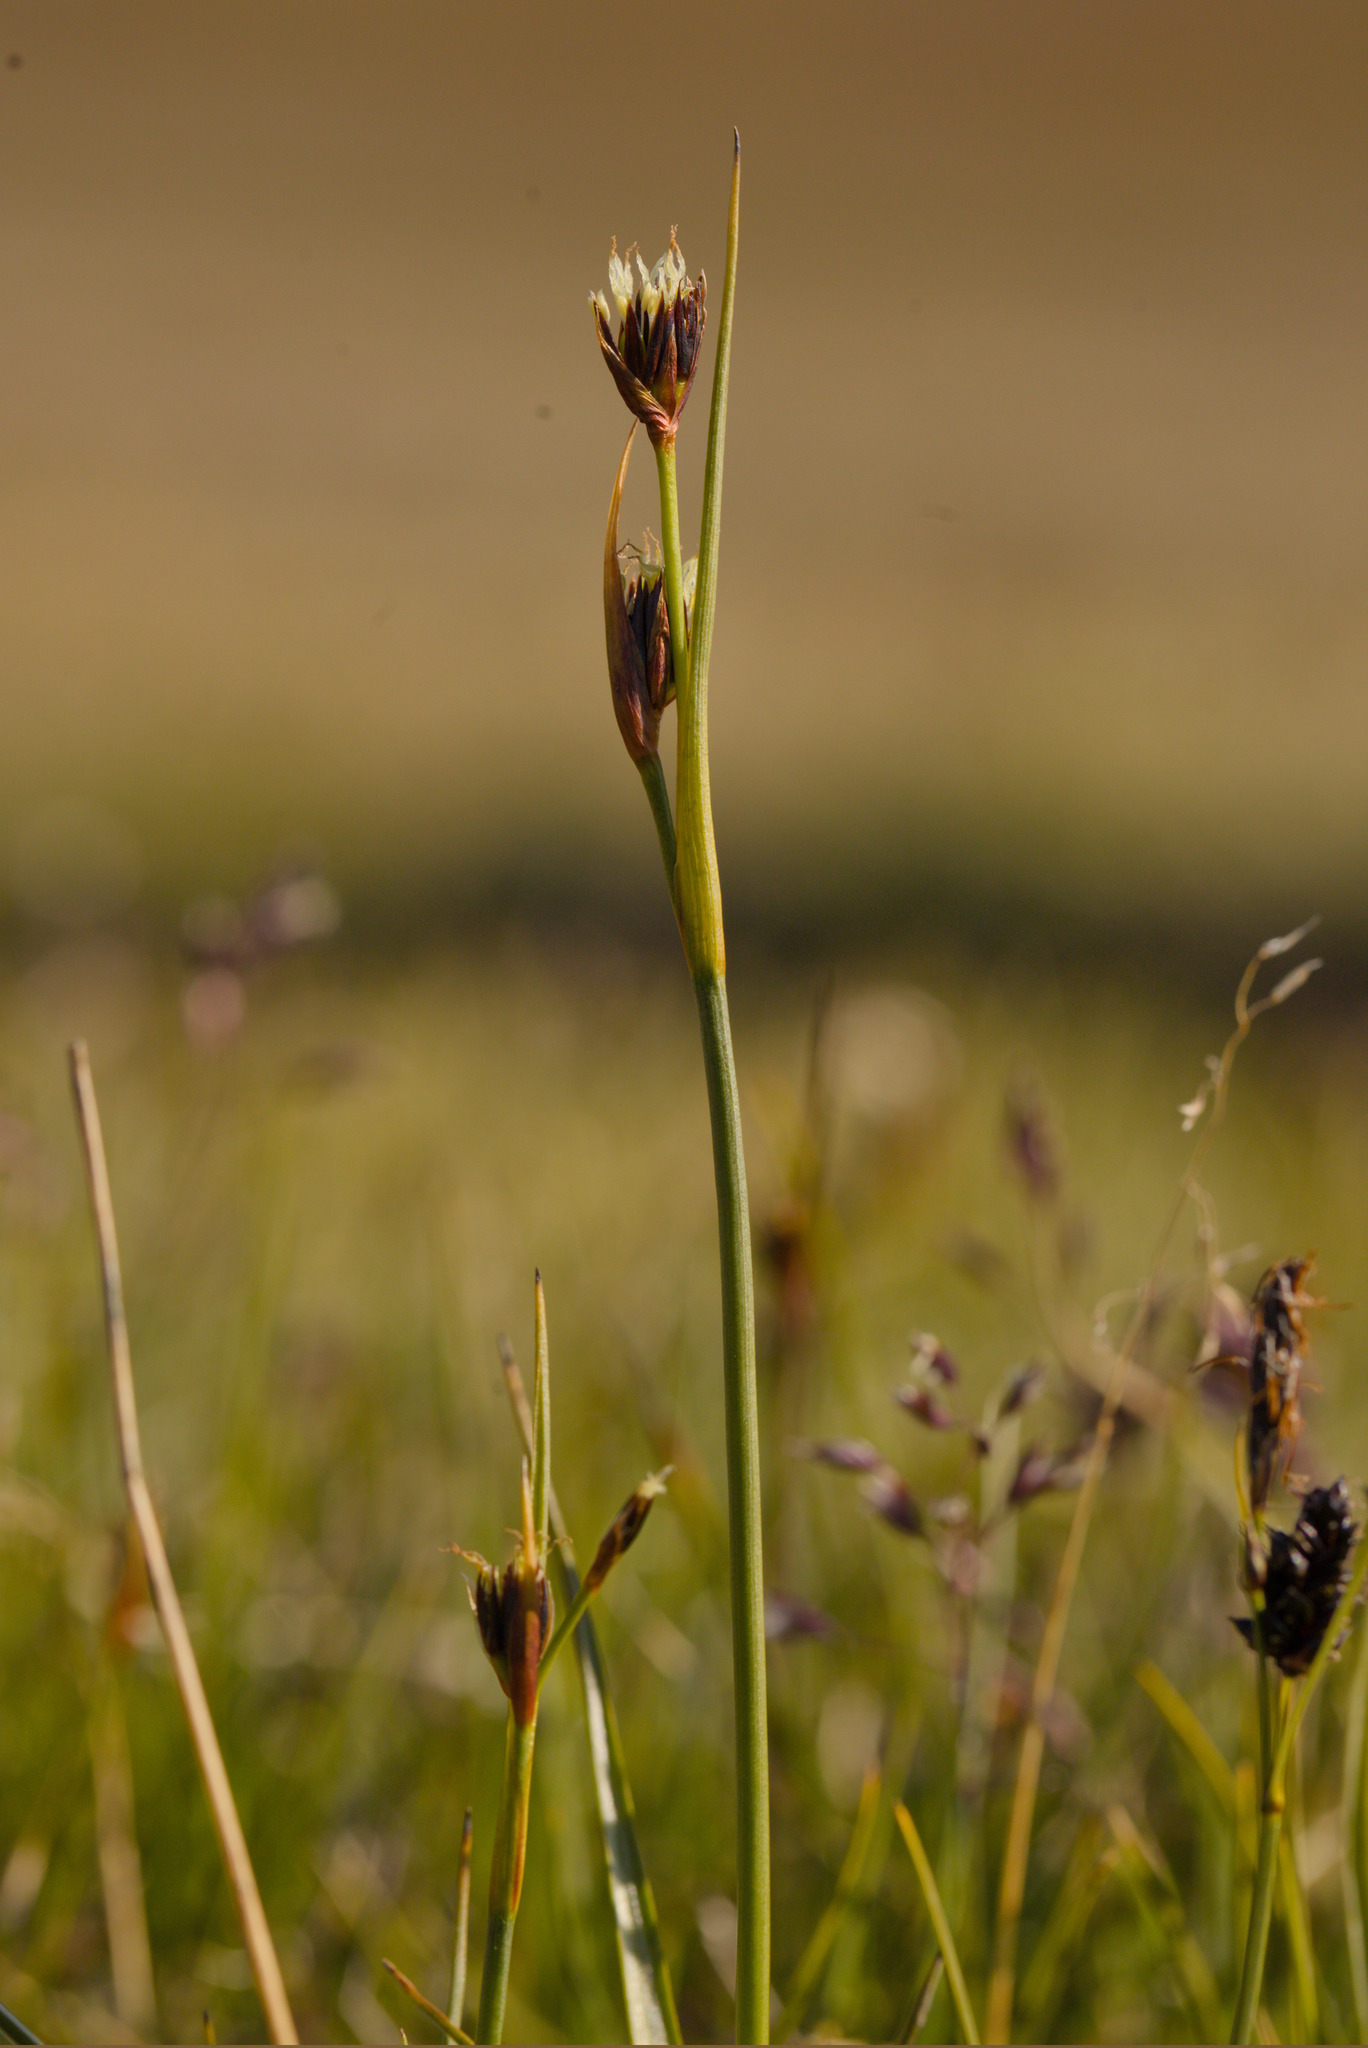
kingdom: Plantae
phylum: Tracheophyta
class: Liliopsida
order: Poales
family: Juncaceae
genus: Juncus
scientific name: Juncus castaneus
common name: Chestnut rush
